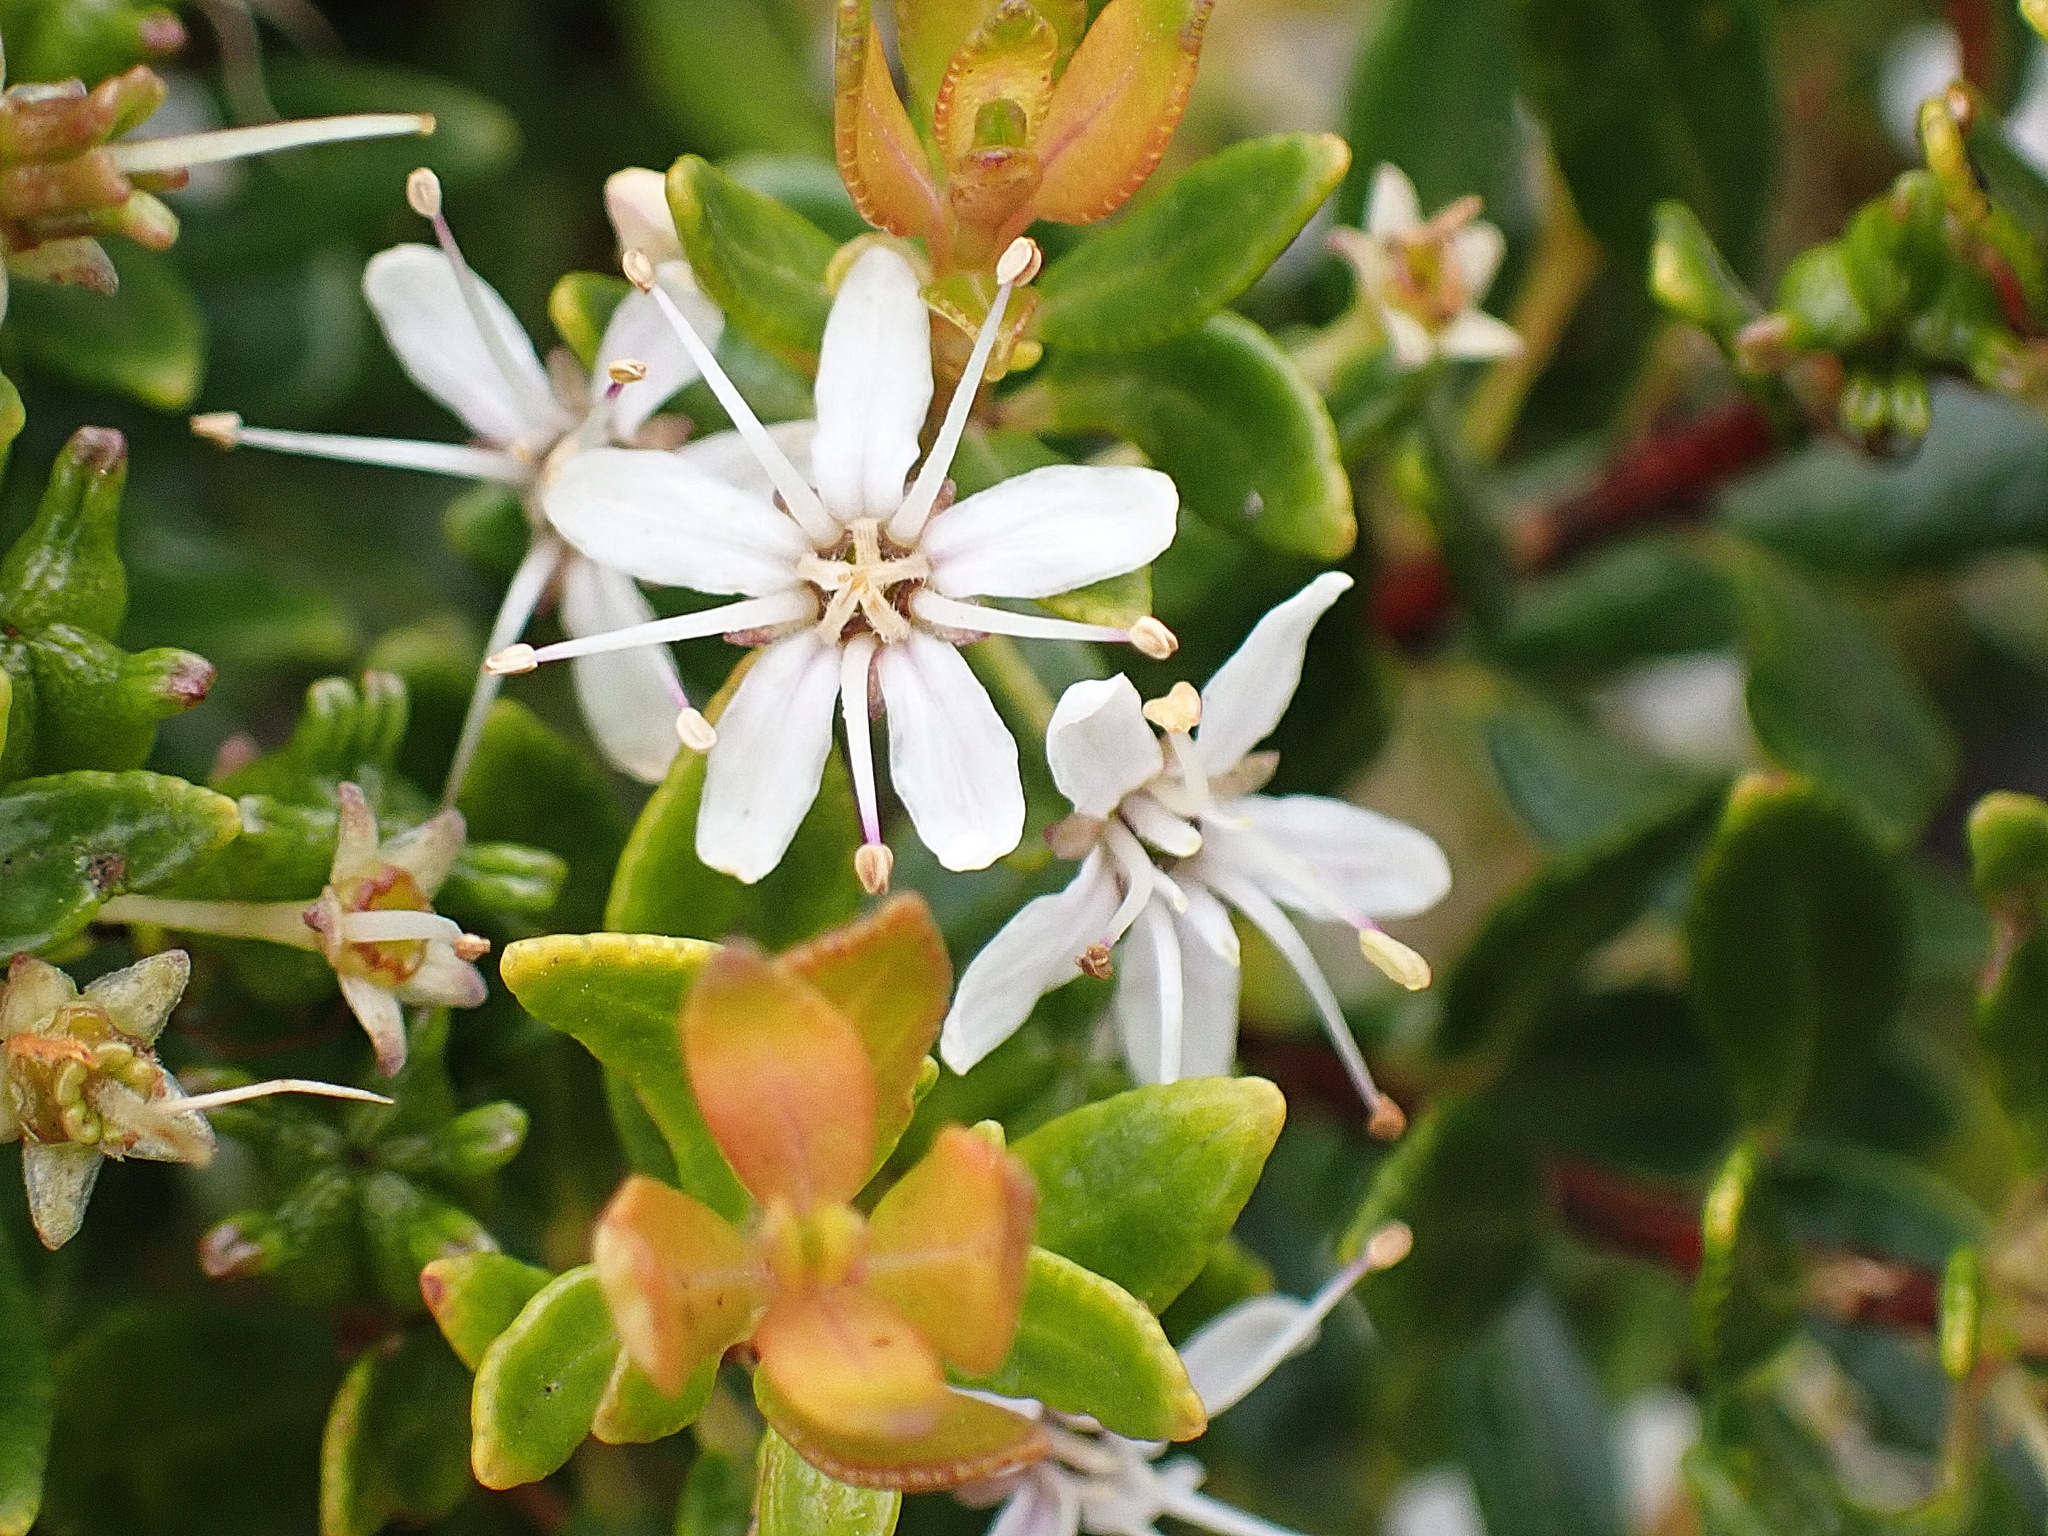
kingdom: Plantae
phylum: Tracheophyta
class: Magnoliopsida
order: Sapindales
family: Rutaceae
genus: Agathosma
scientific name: Agathosma ovata
